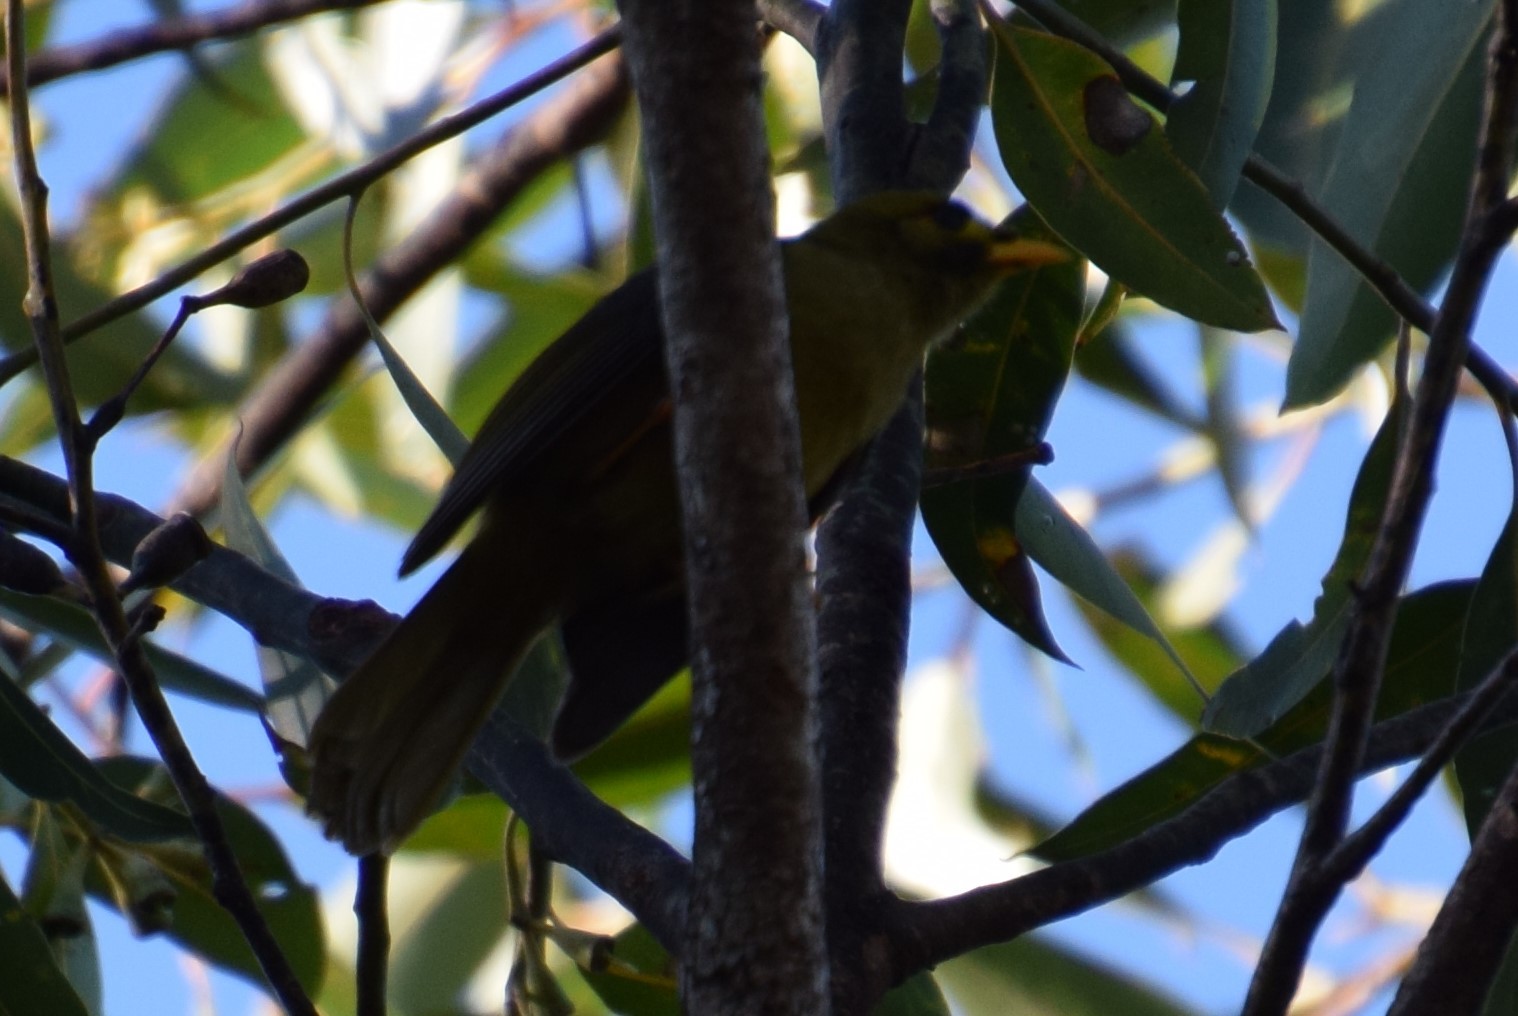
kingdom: Animalia
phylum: Chordata
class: Aves
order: Passeriformes
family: Meliphagidae
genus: Manorina
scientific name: Manorina melanophrys
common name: Bell miner
